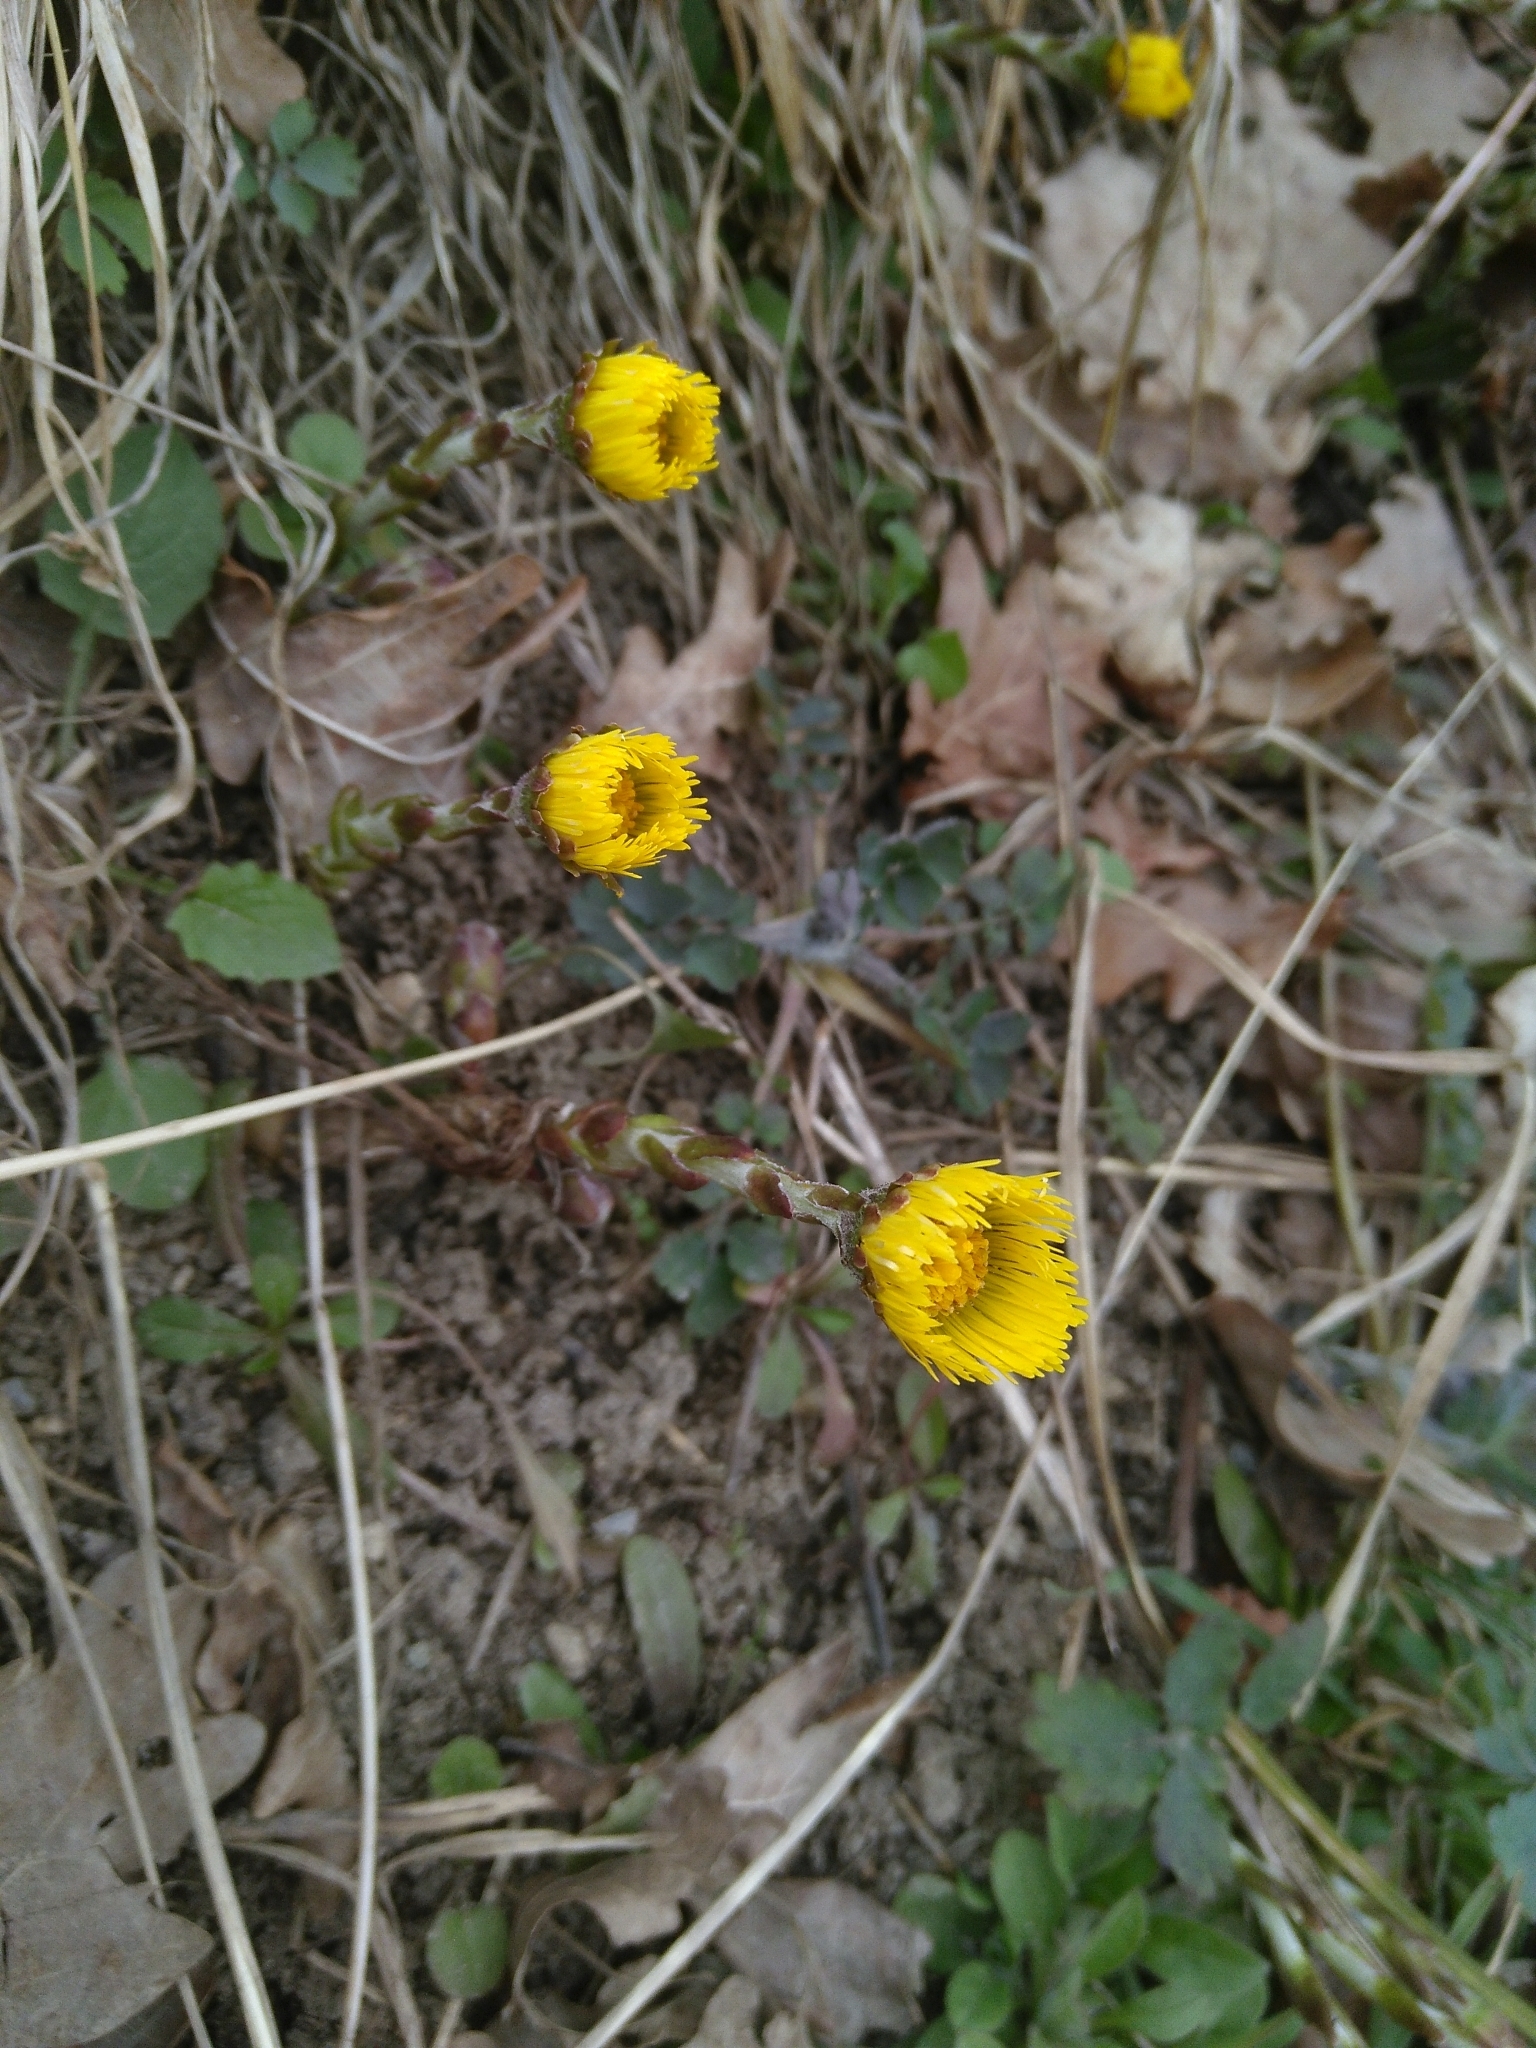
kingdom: Plantae
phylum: Tracheophyta
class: Magnoliopsida
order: Asterales
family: Asteraceae
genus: Tussilago
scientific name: Tussilago farfara
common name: Coltsfoot
